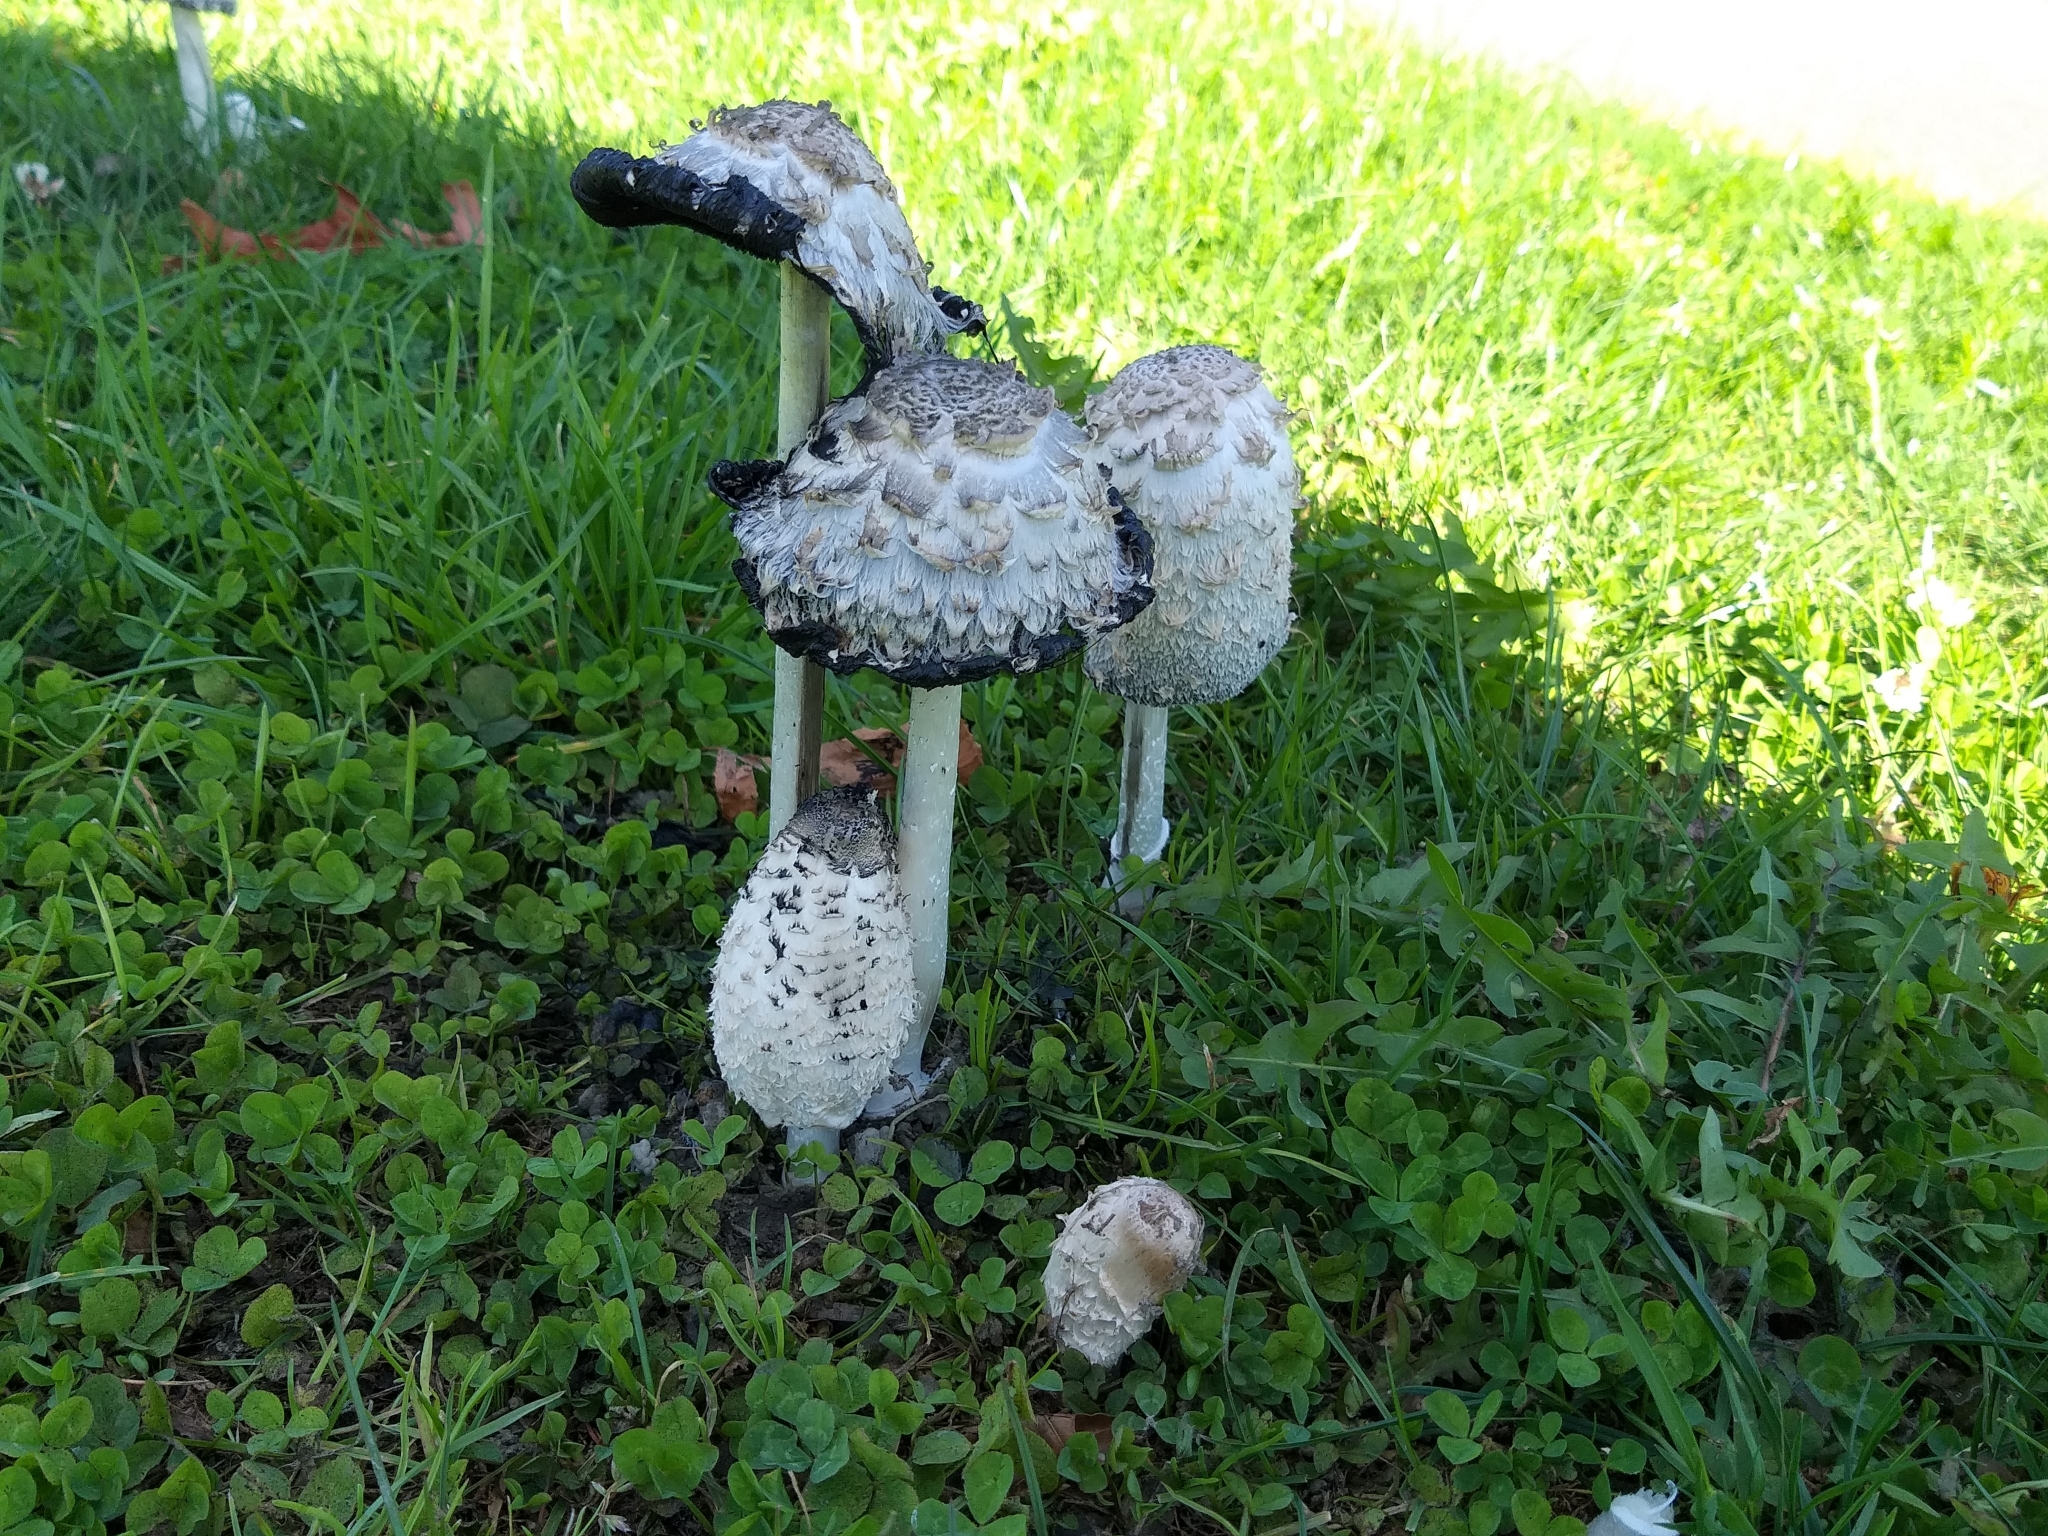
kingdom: Fungi
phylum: Basidiomycota
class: Agaricomycetes
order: Agaricales
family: Agaricaceae
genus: Coprinus
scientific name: Coprinus comatus
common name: Lawyer's wig
